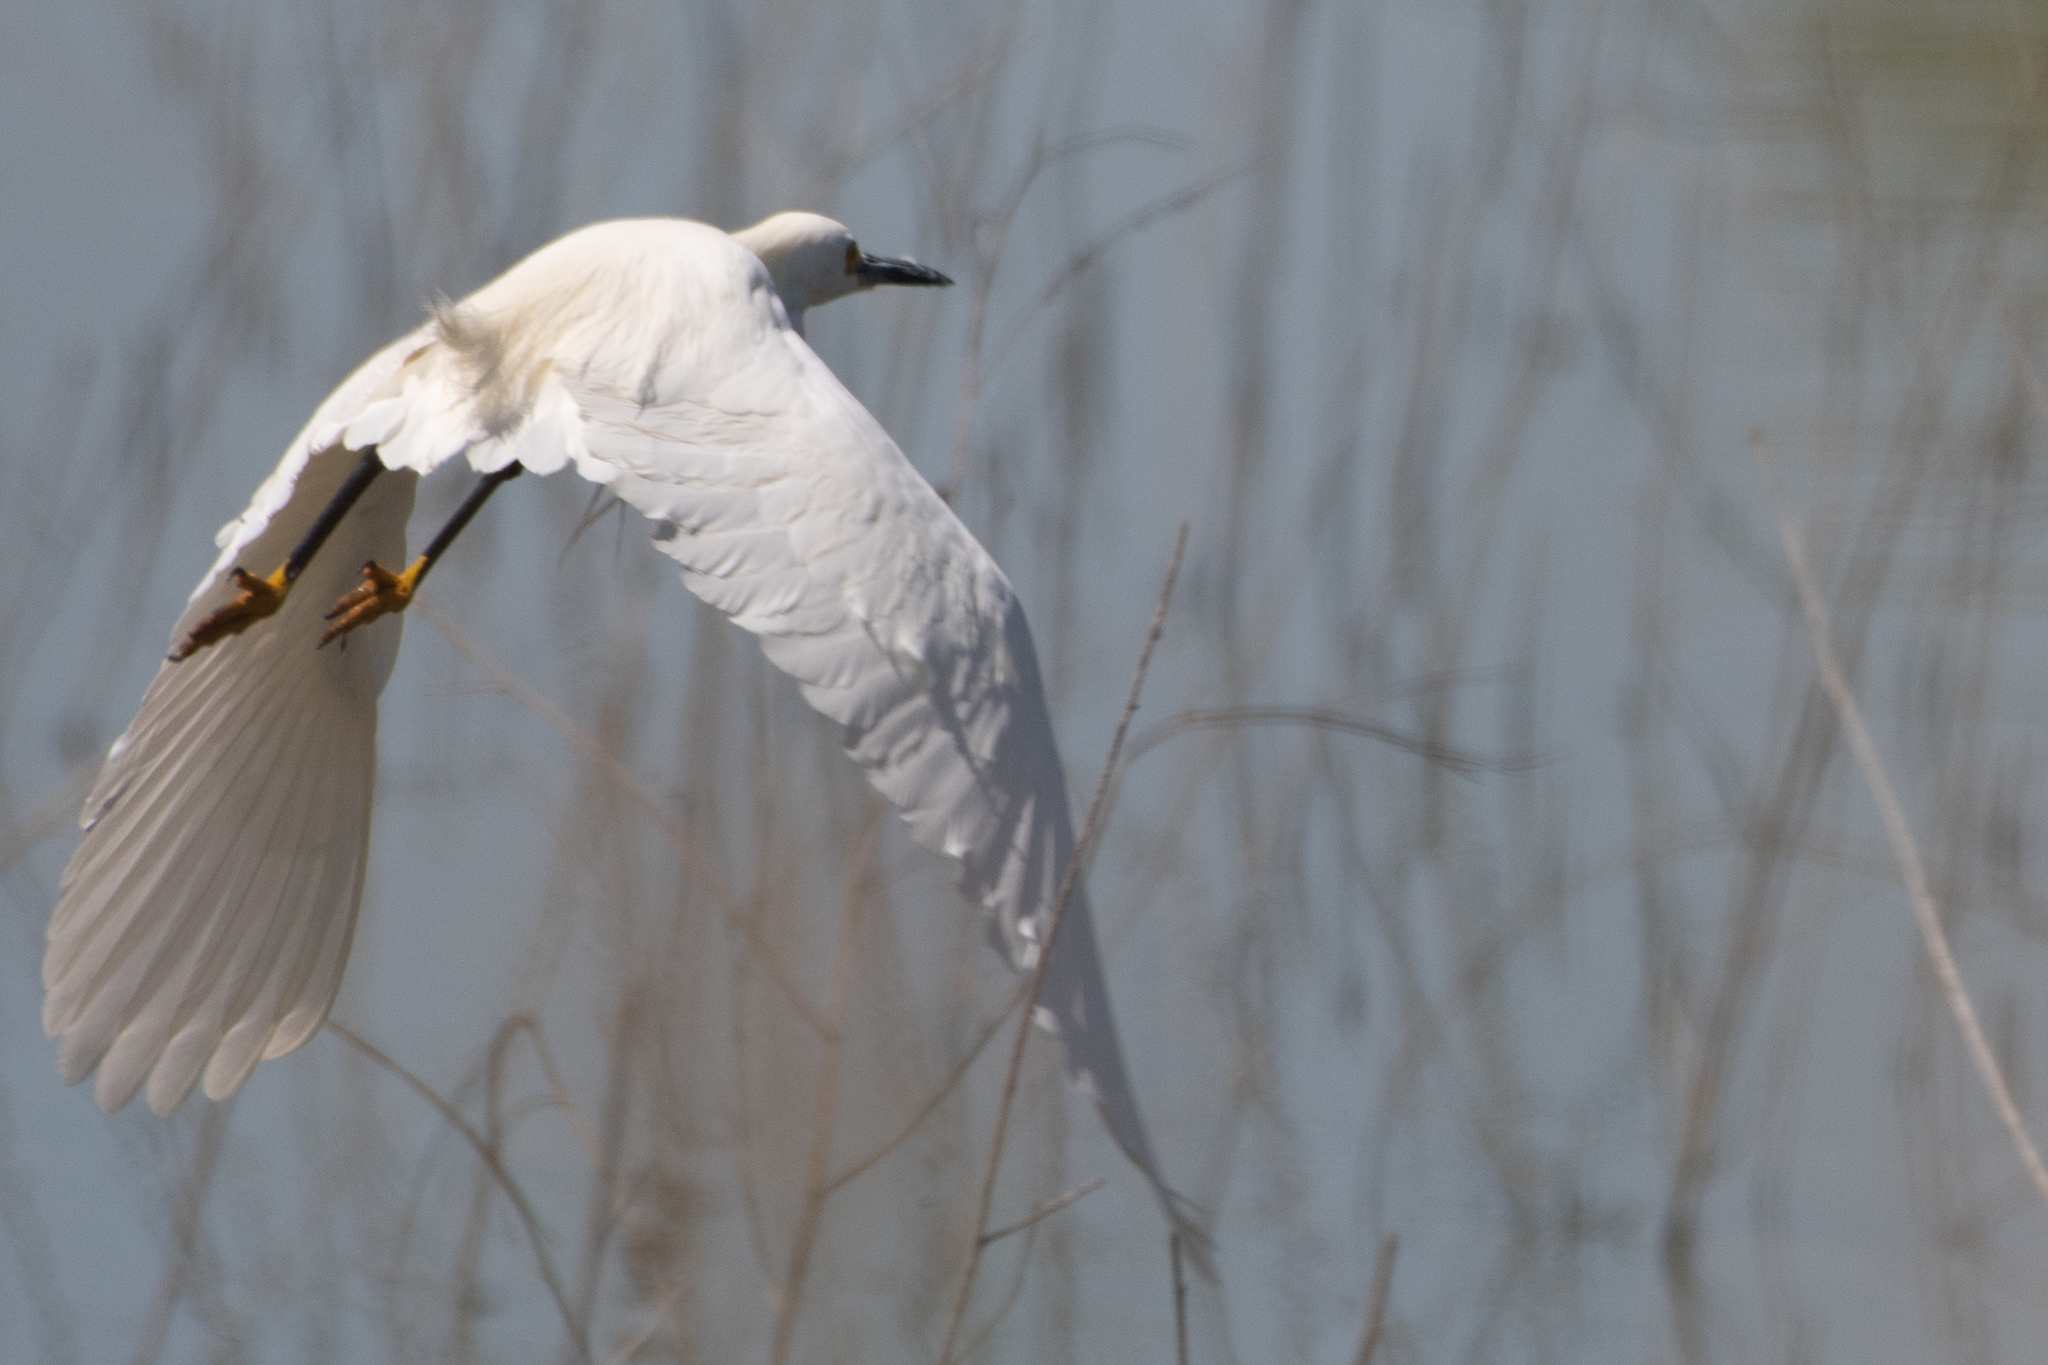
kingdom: Animalia
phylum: Chordata
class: Aves
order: Pelecaniformes
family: Ardeidae
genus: Egretta
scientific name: Egretta thula
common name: Snowy egret
